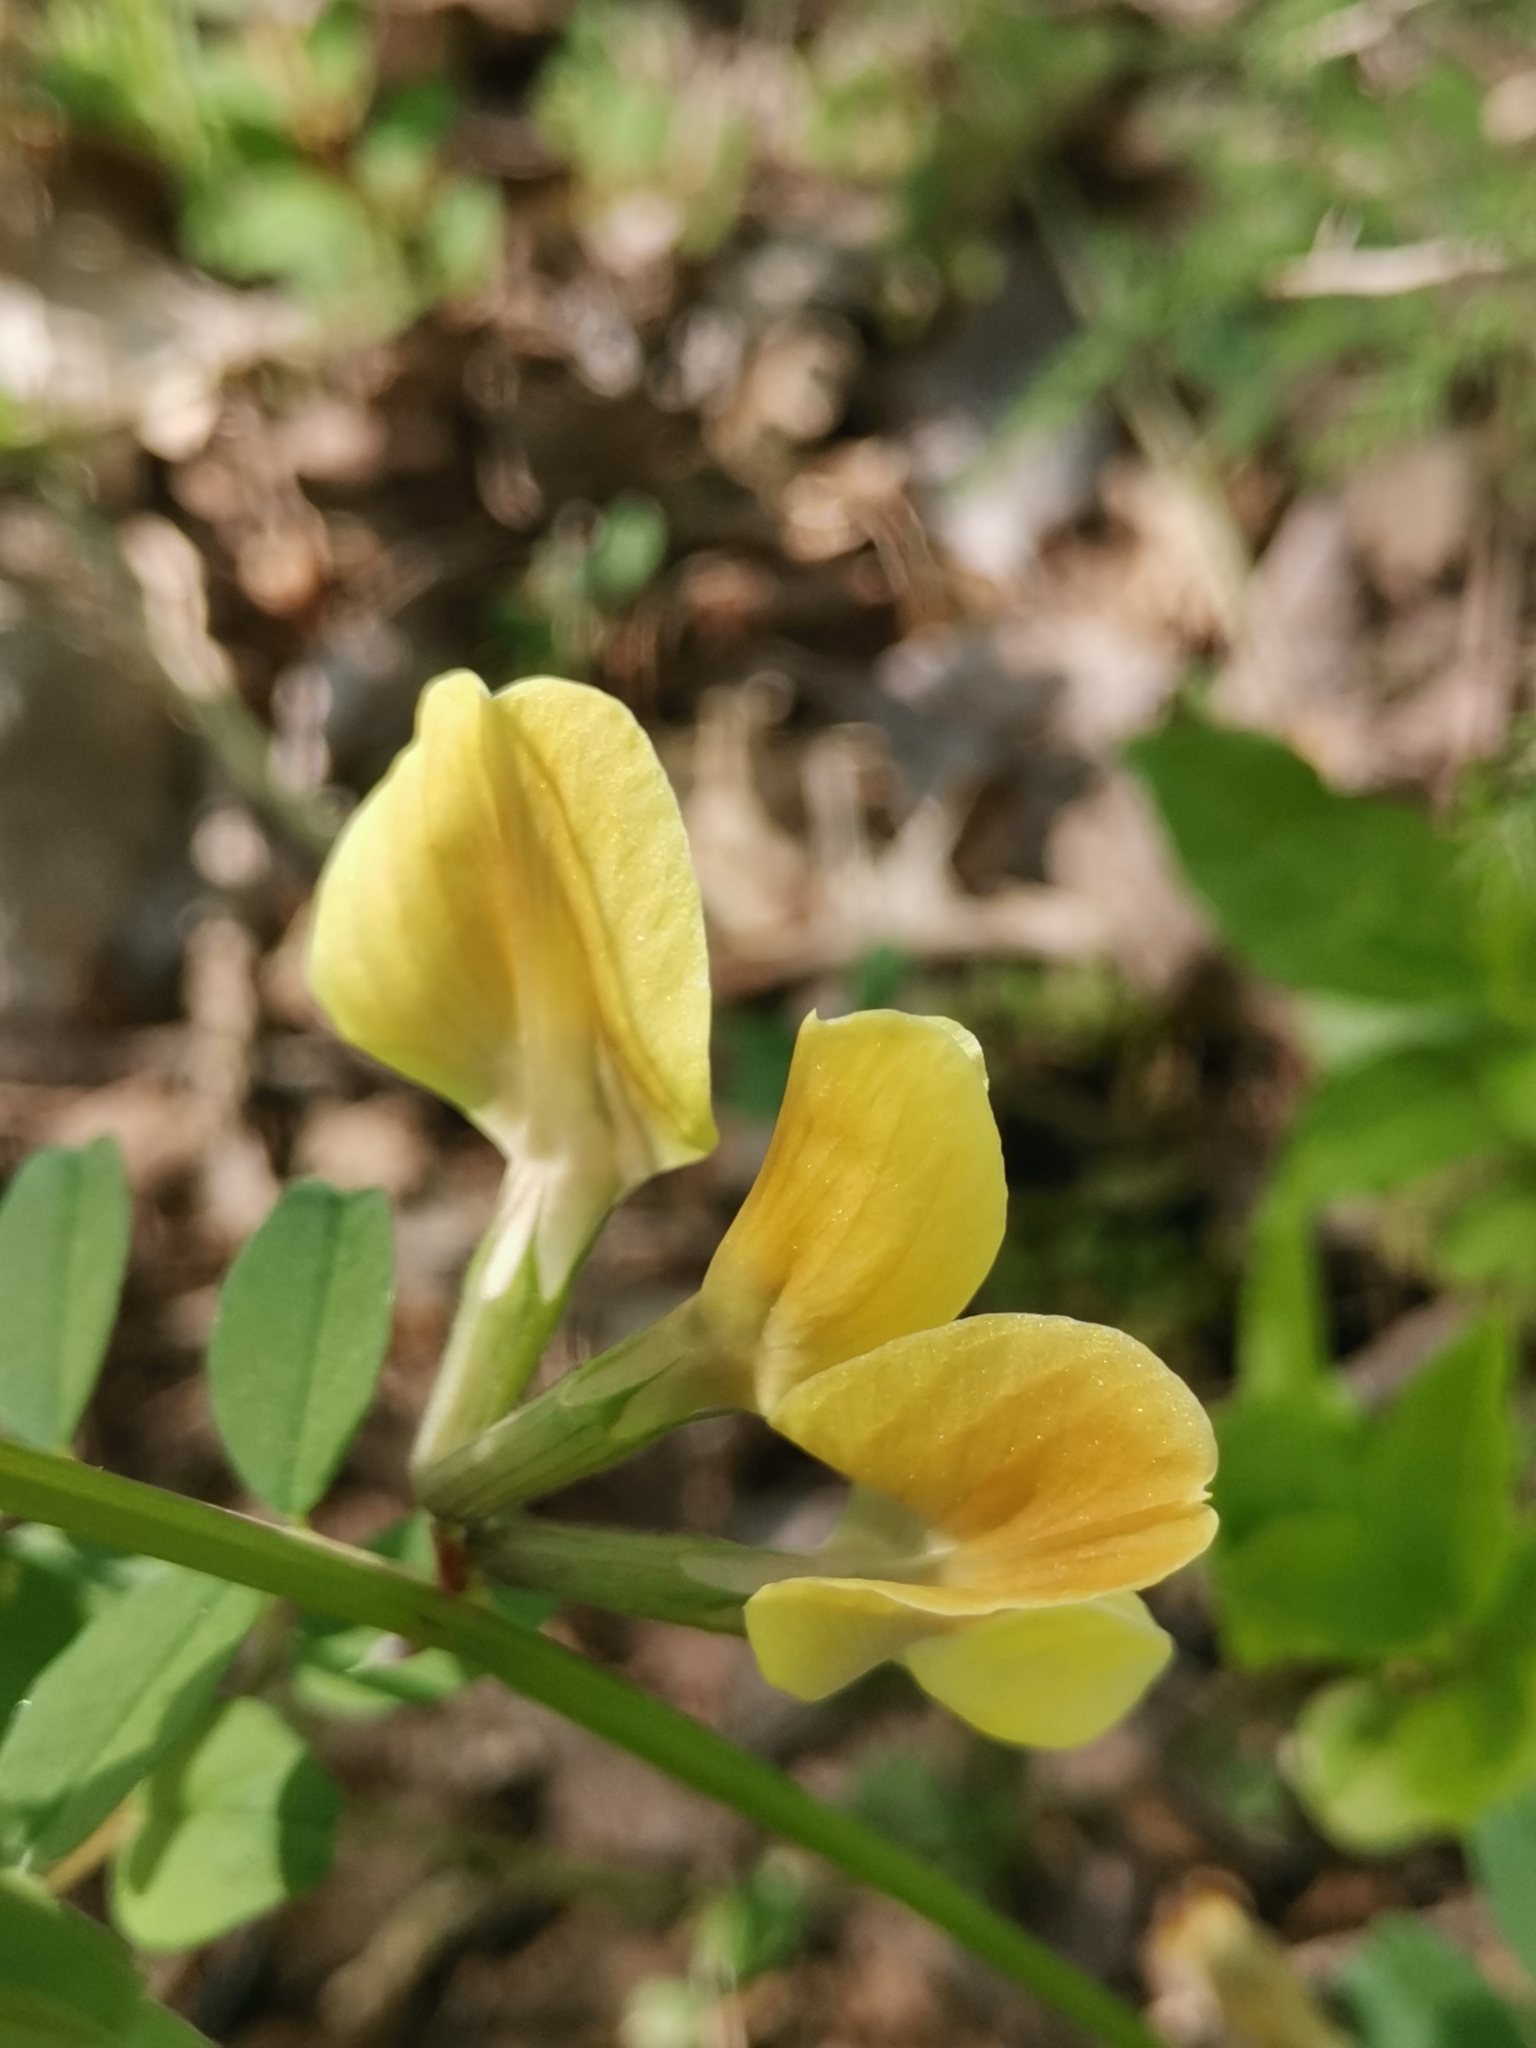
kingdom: Plantae
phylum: Tracheophyta
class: Magnoliopsida
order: Fabales
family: Fabaceae
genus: Vicia
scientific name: Vicia grandiflora
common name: Large yellow vetch
